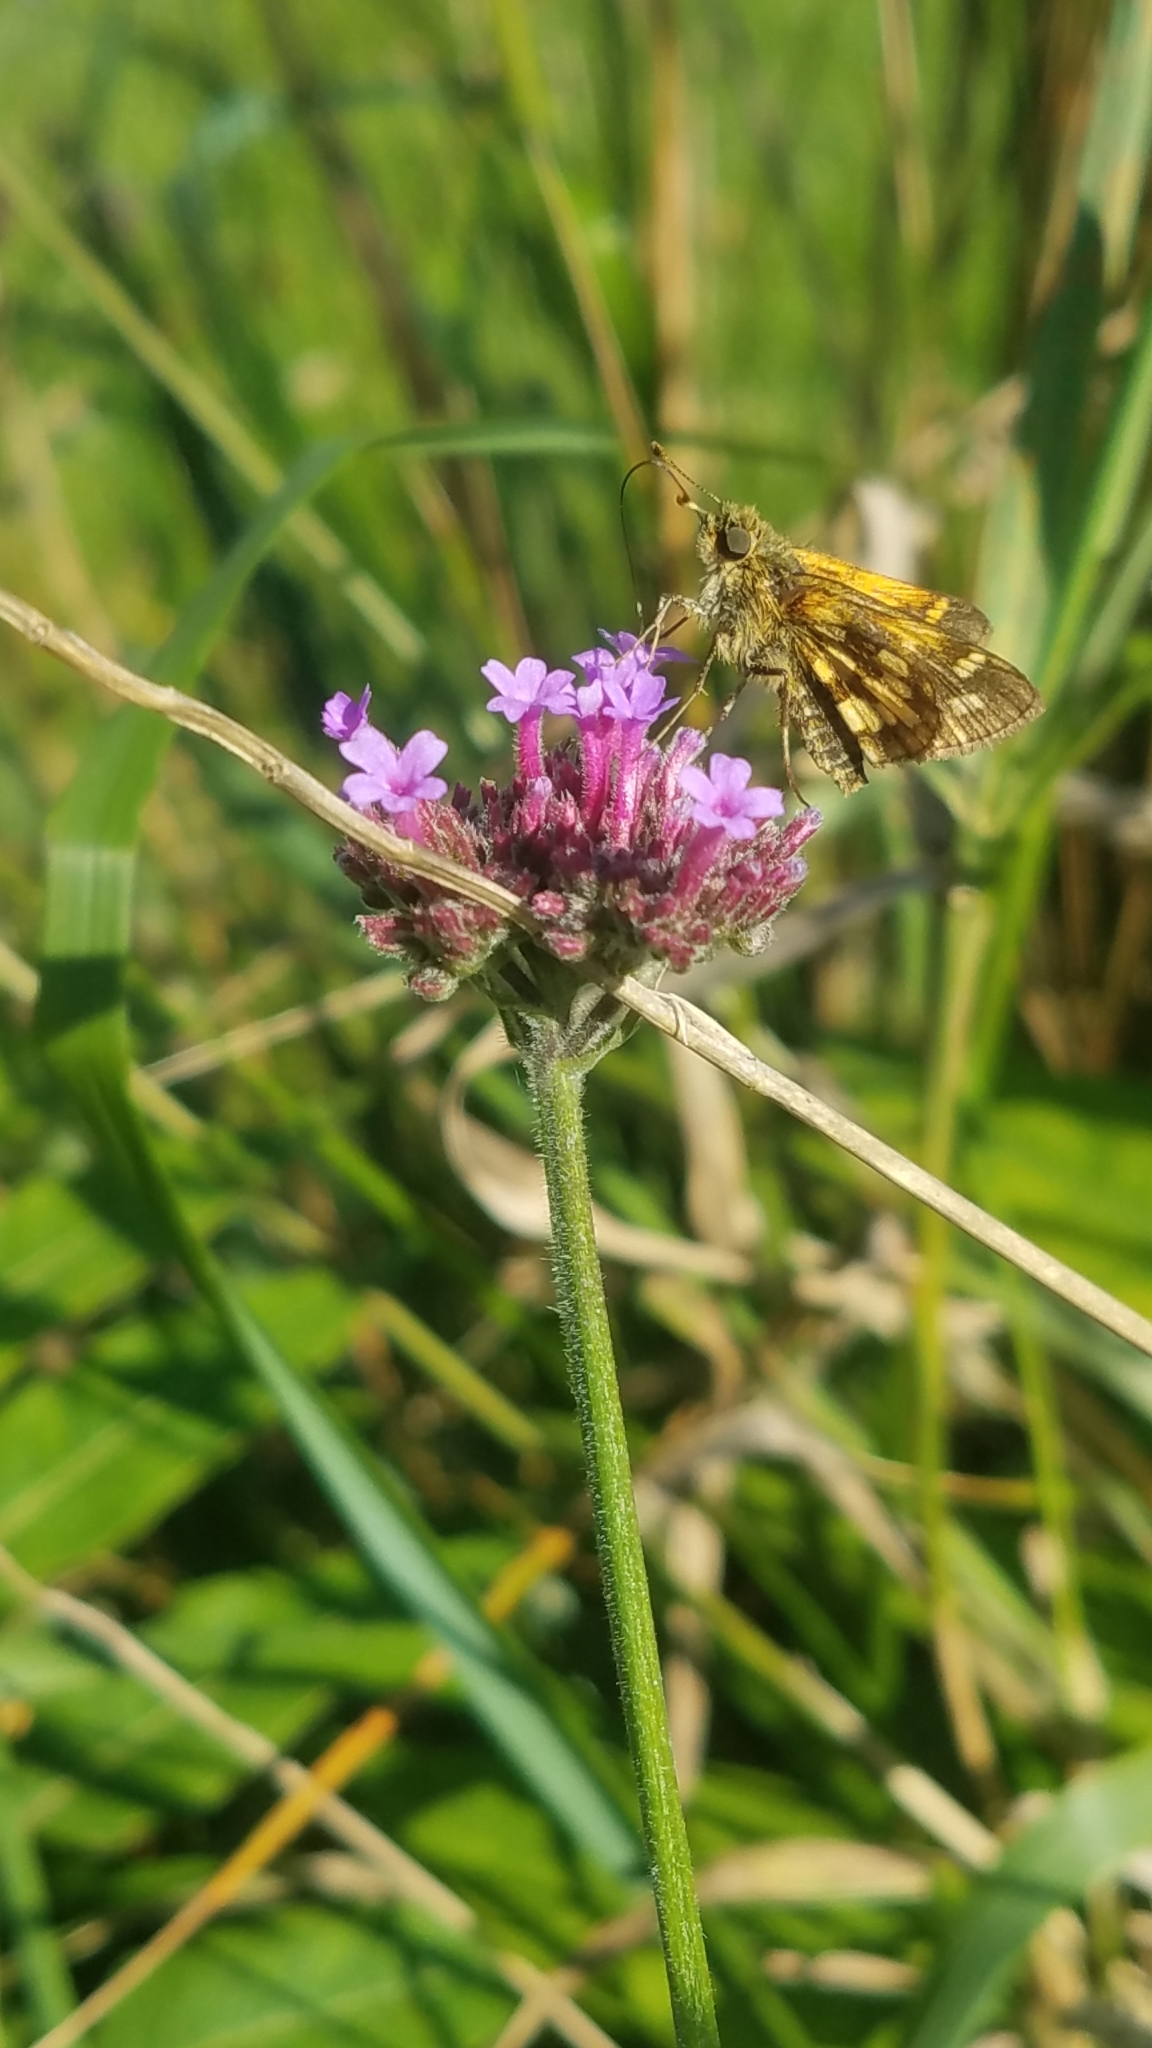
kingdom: Animalia
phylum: Arthropoda
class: Insecta
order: Lepidoptera
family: Hesperiidae
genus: Polites
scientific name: Polites coras
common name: Peck's skipper
